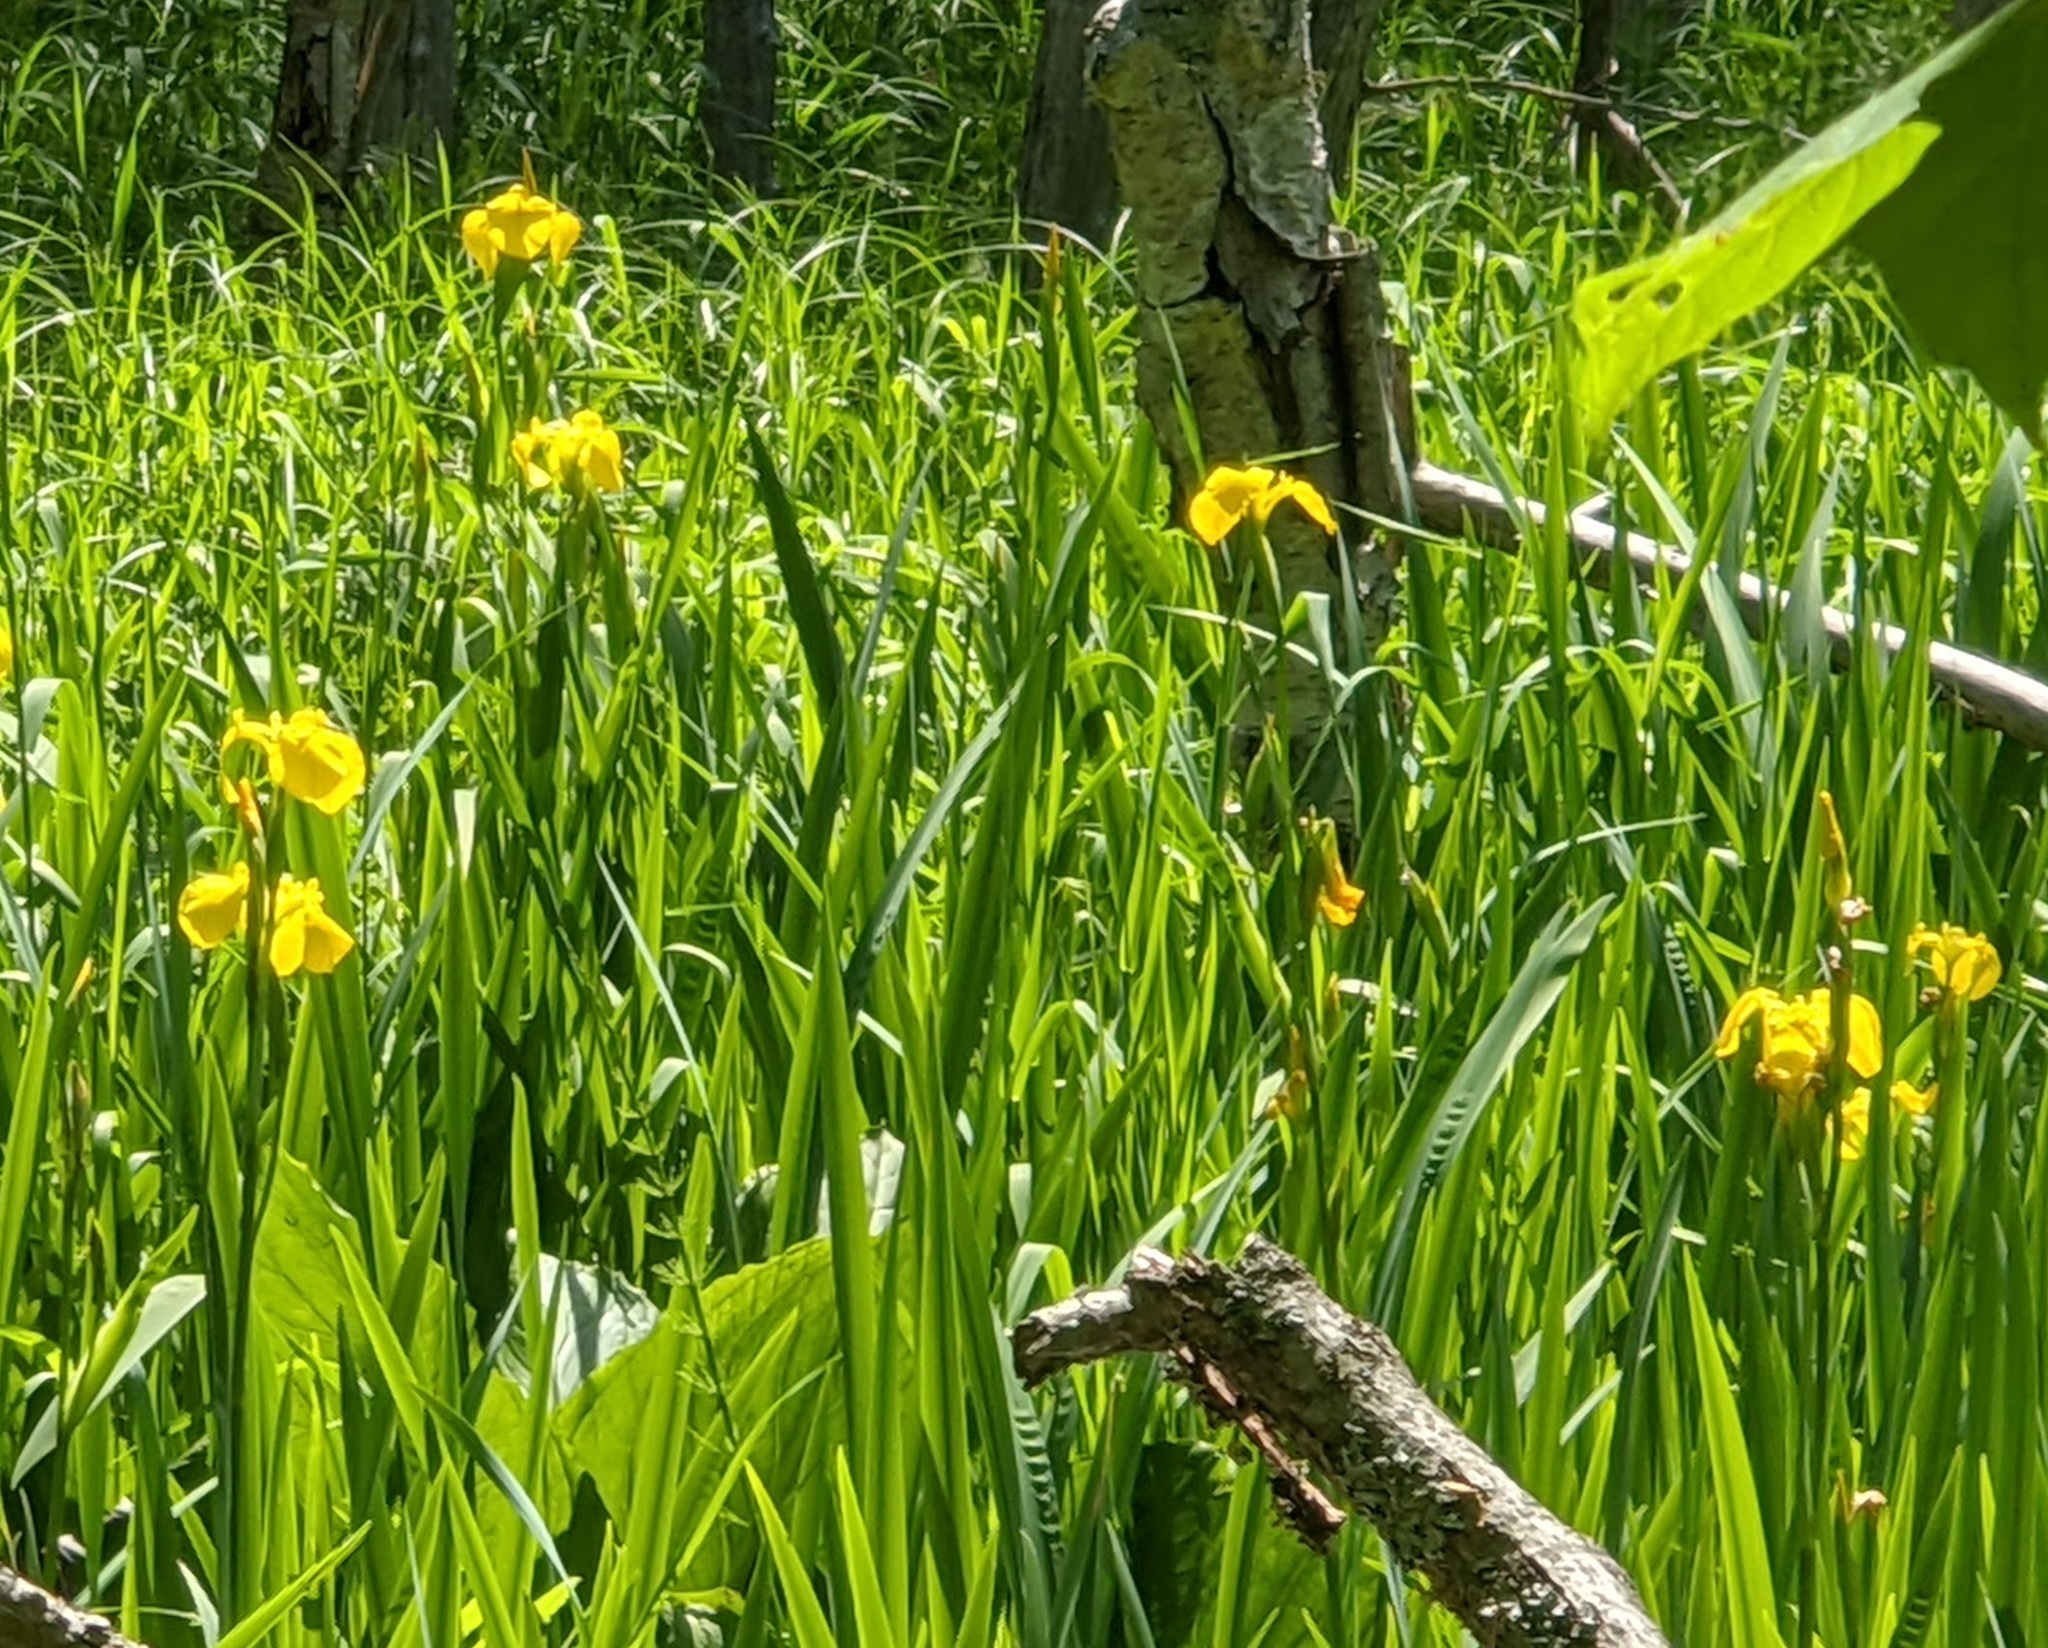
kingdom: Plantae
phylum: Tracheophyta
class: Liliopsida
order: Asparagales
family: Iridaceae
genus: Iris
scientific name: Iris pseudacorus
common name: Yellow flag
